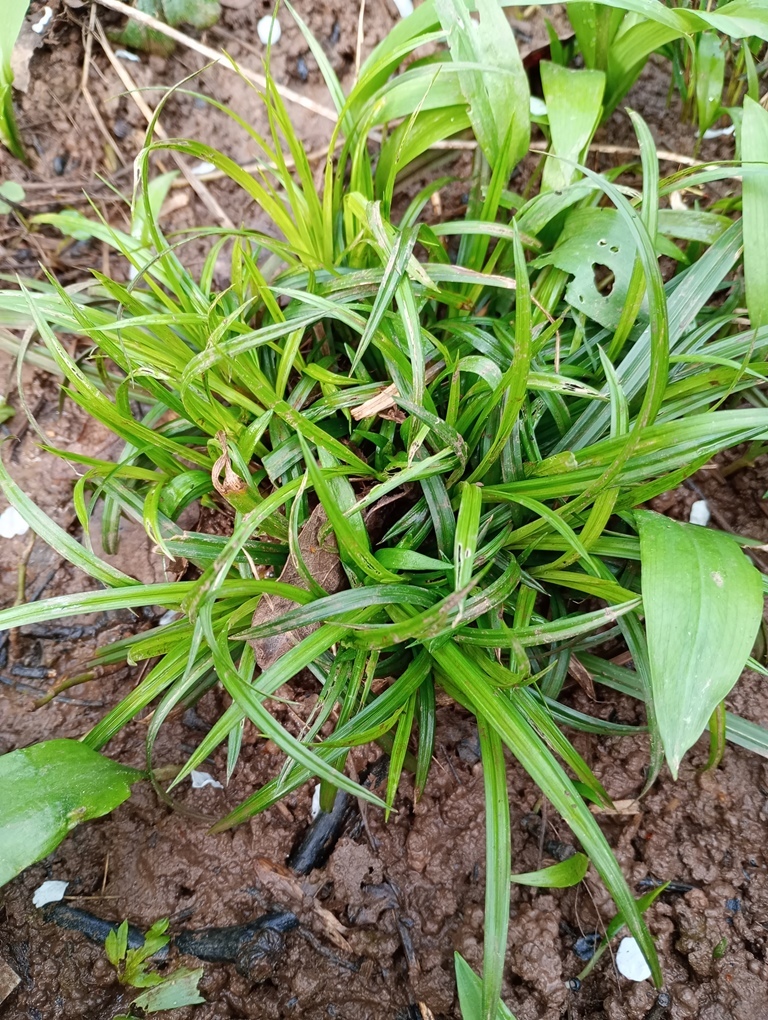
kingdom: Plantae
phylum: Tracheophyta
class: Liliopsida
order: Poales
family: Cyperaceae
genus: Carex
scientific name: Carex sylvatica
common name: Wood-sedge
